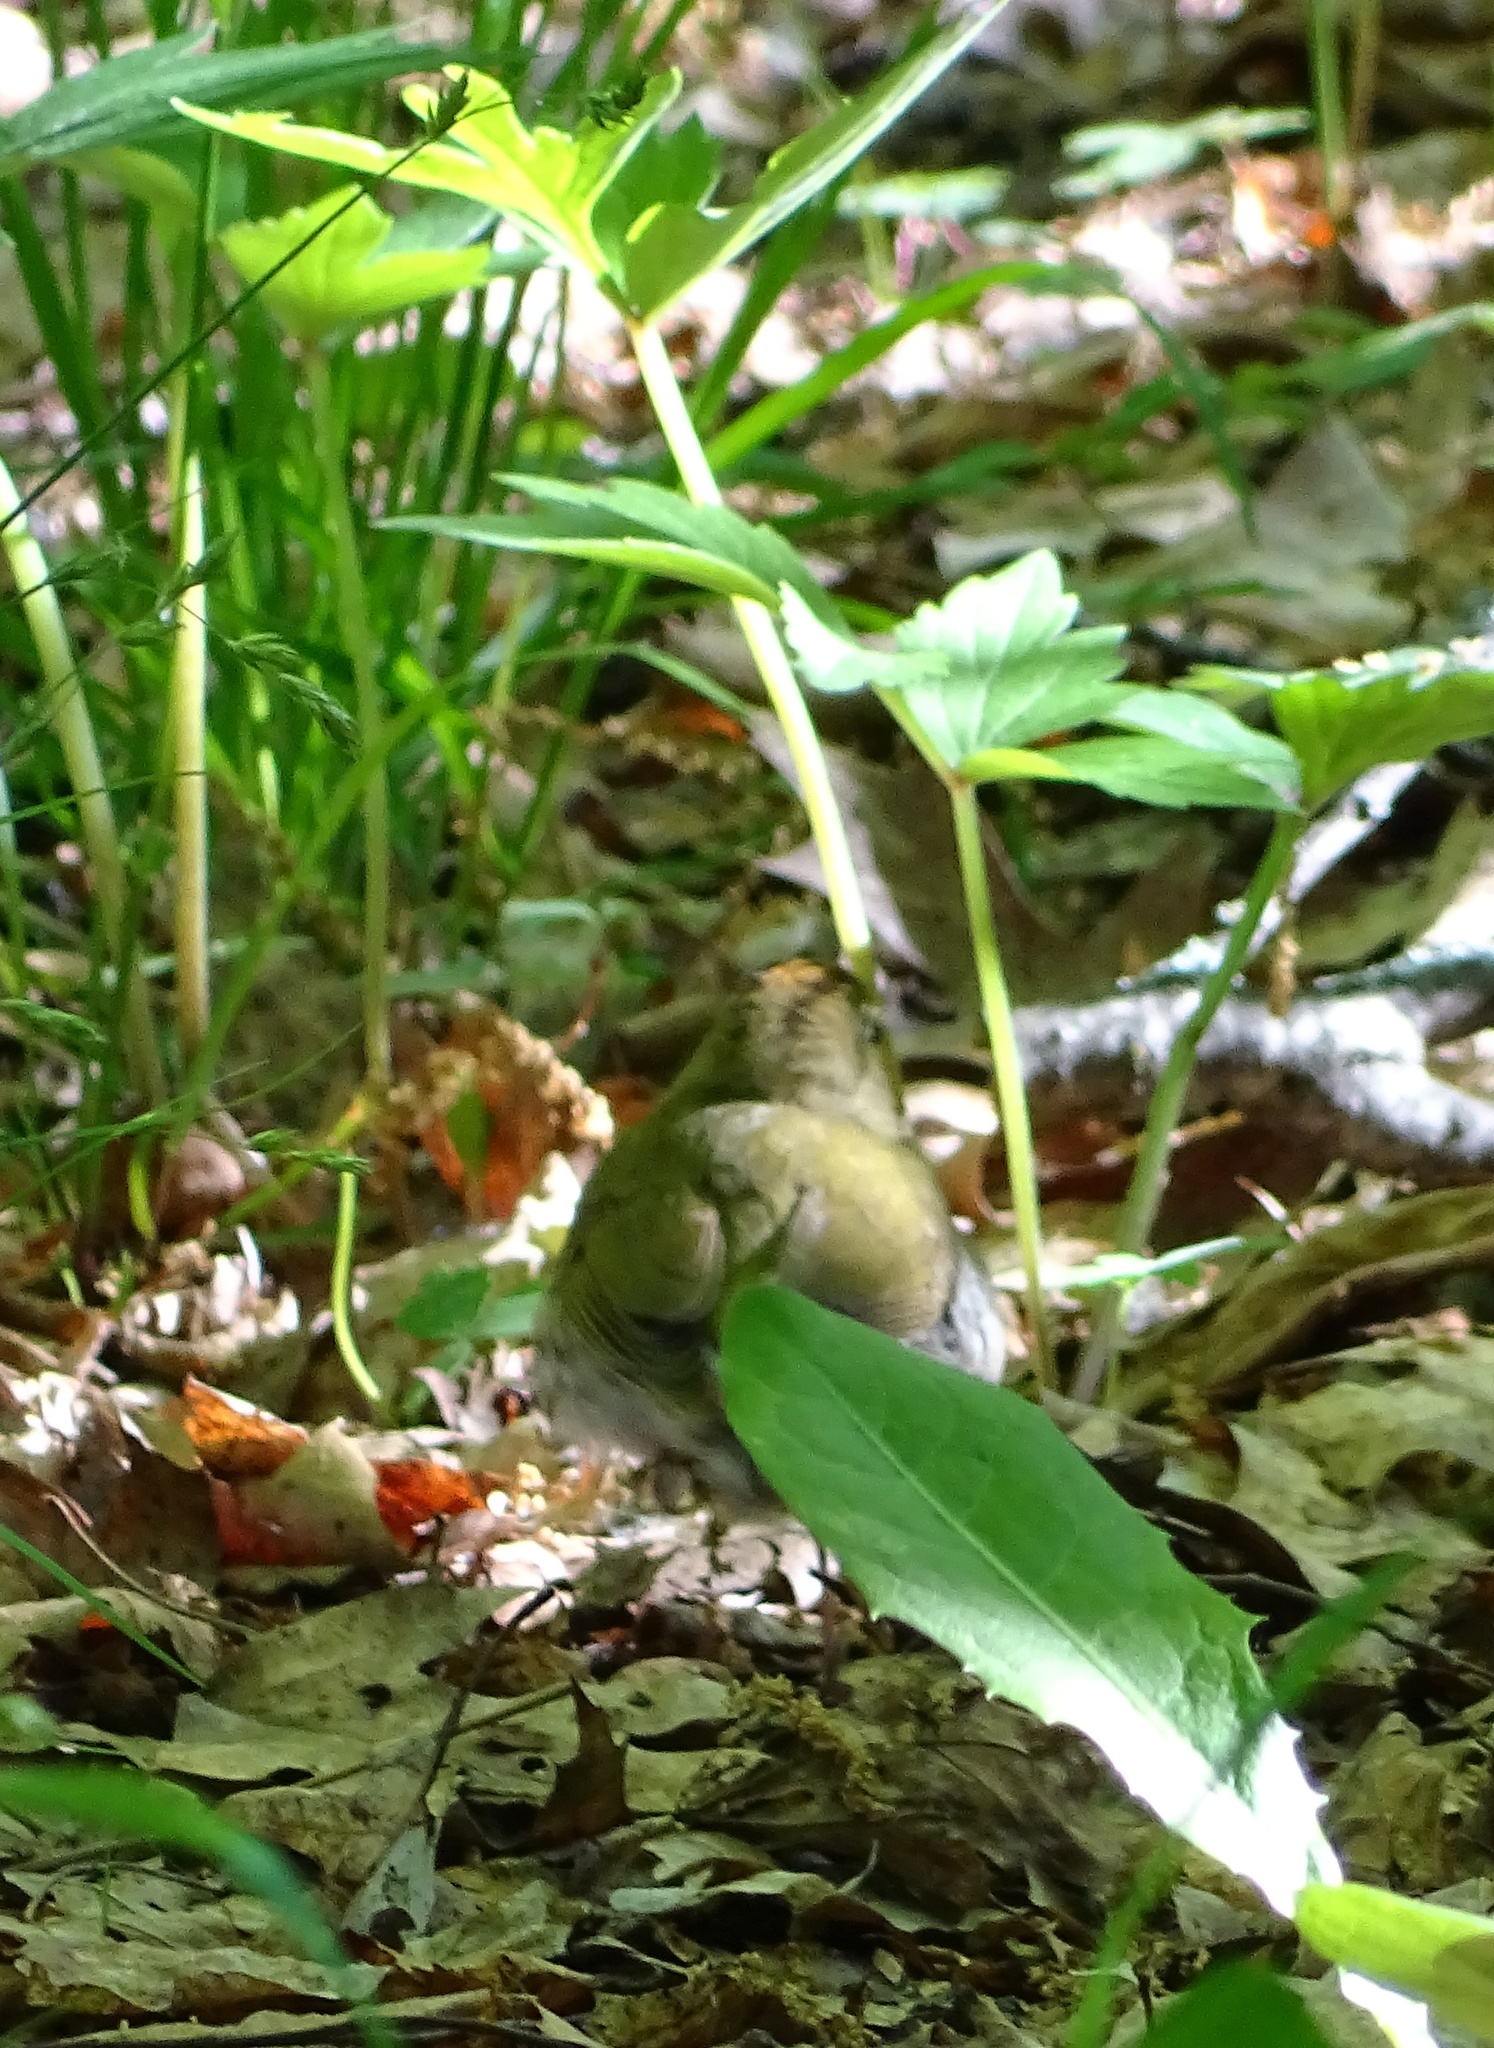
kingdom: Animalia
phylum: Chordata
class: Aves
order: Passeriformes
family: Parulidae
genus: Seiurus
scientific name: Seiurus aurocapilla
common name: Ovenbird
